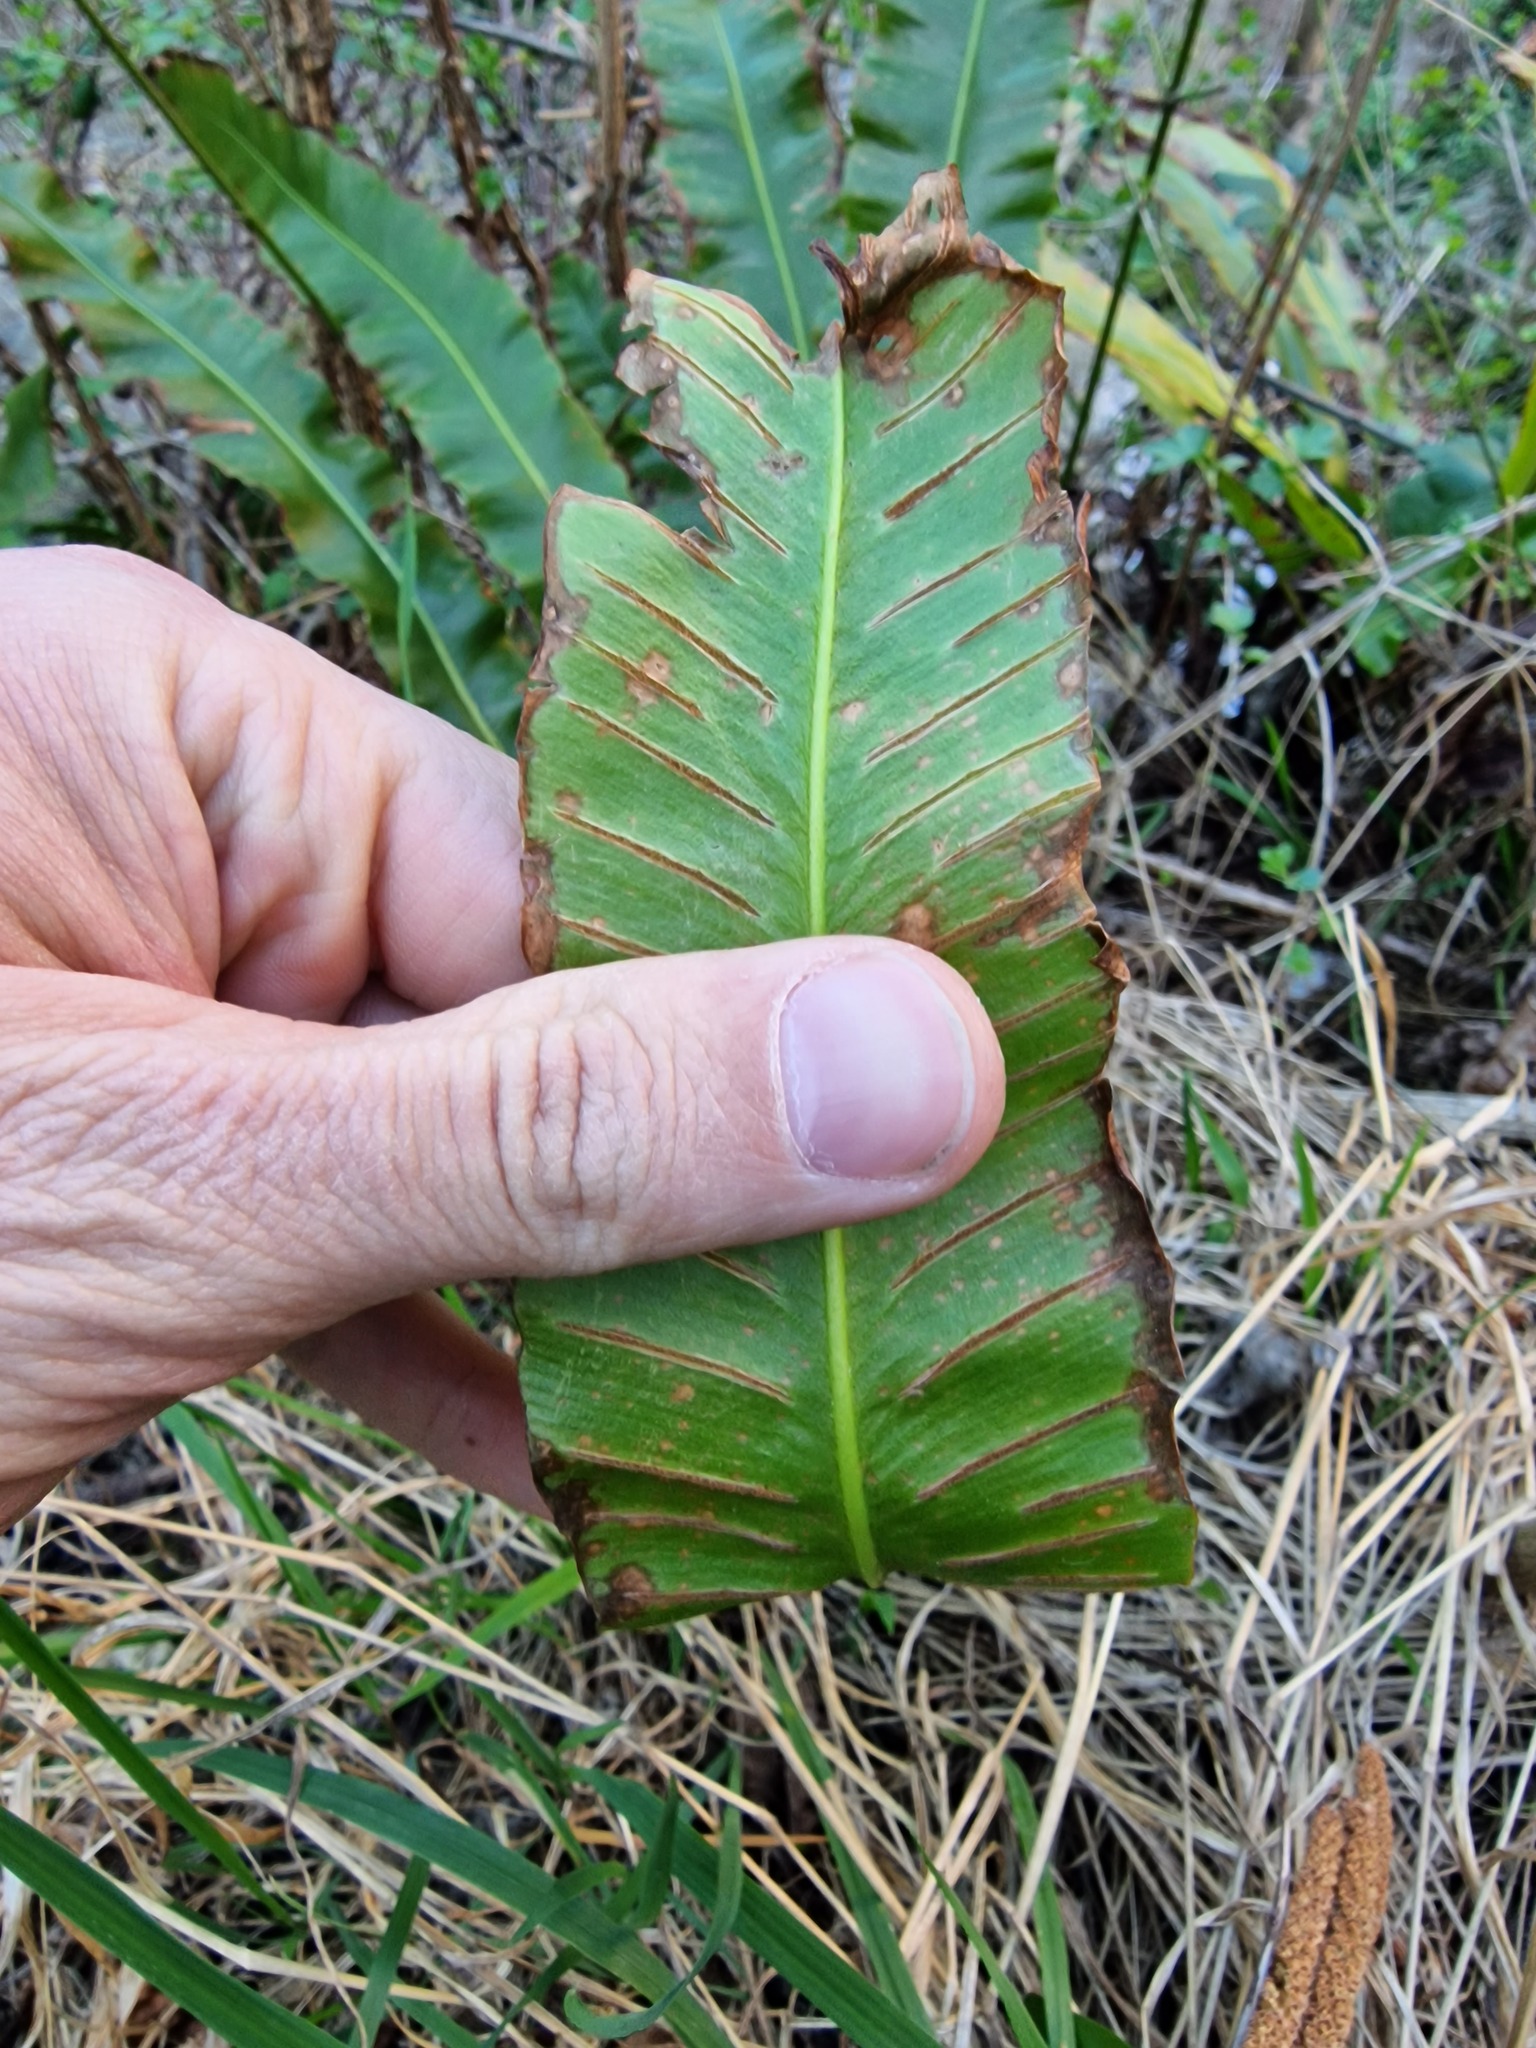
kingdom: Plantae
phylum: Tracheophyta
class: Polypodiopsida
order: Polypodiales
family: Aspleniaceae
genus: Asplenium
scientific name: Asplenium scolopendrium
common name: Hart's-tongue fern
